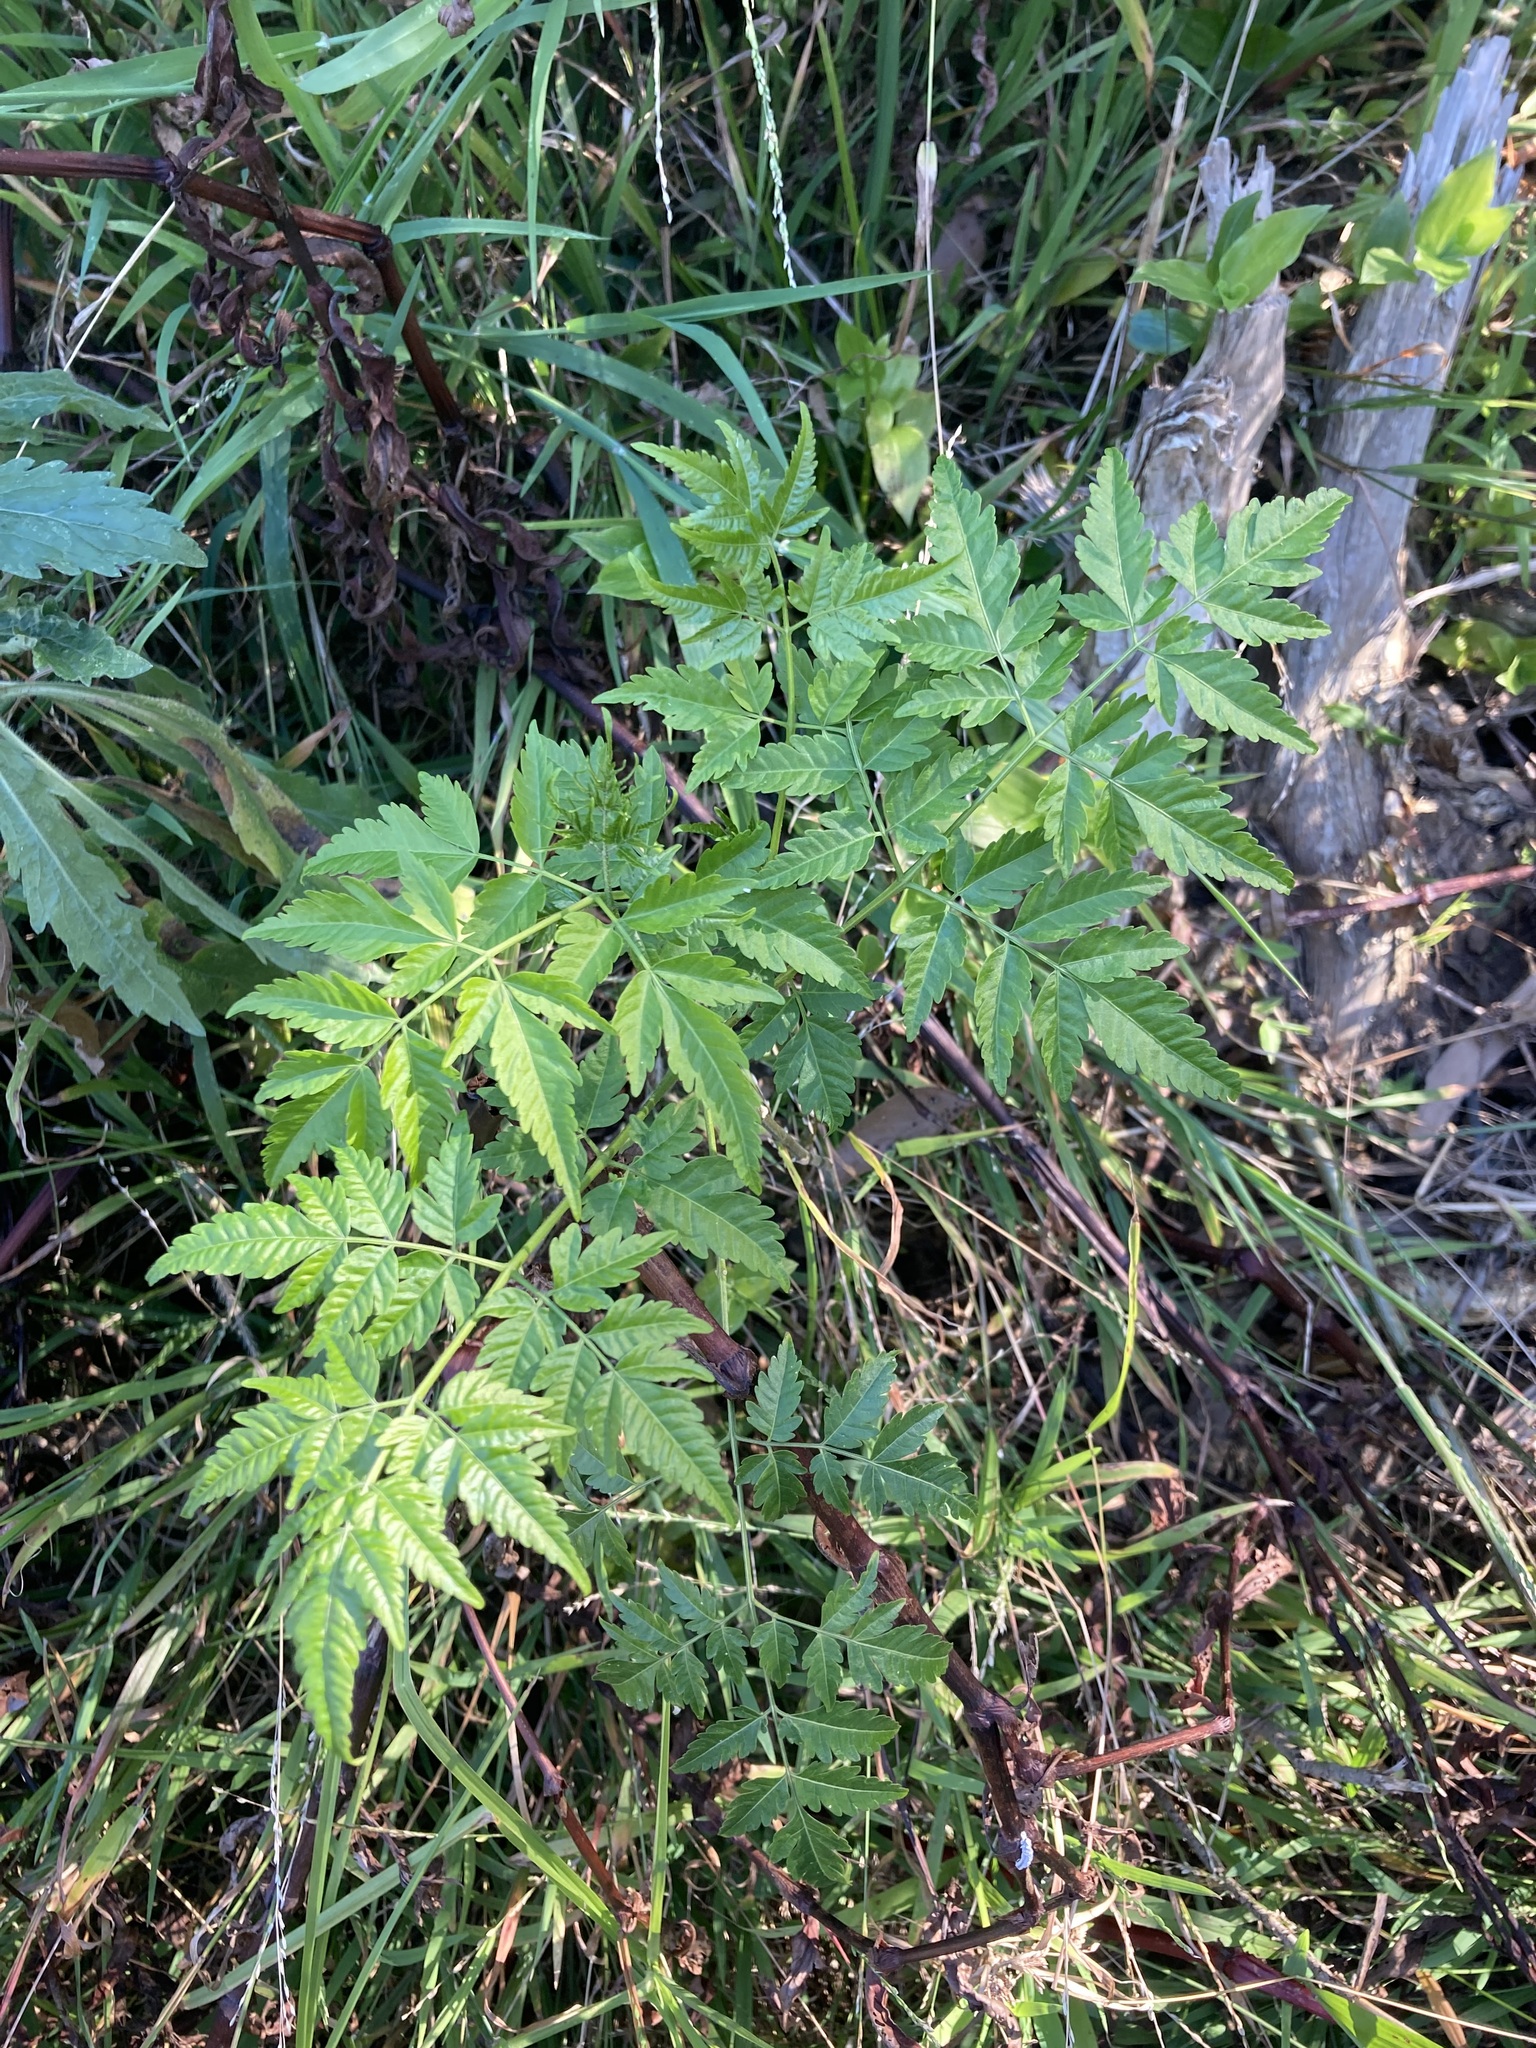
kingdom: Plantae
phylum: Tracheophyta
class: Magnoliopsida
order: Sapindales
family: Meliaceae
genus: Melia
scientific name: Melia azedarach
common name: Chinaberrytree
